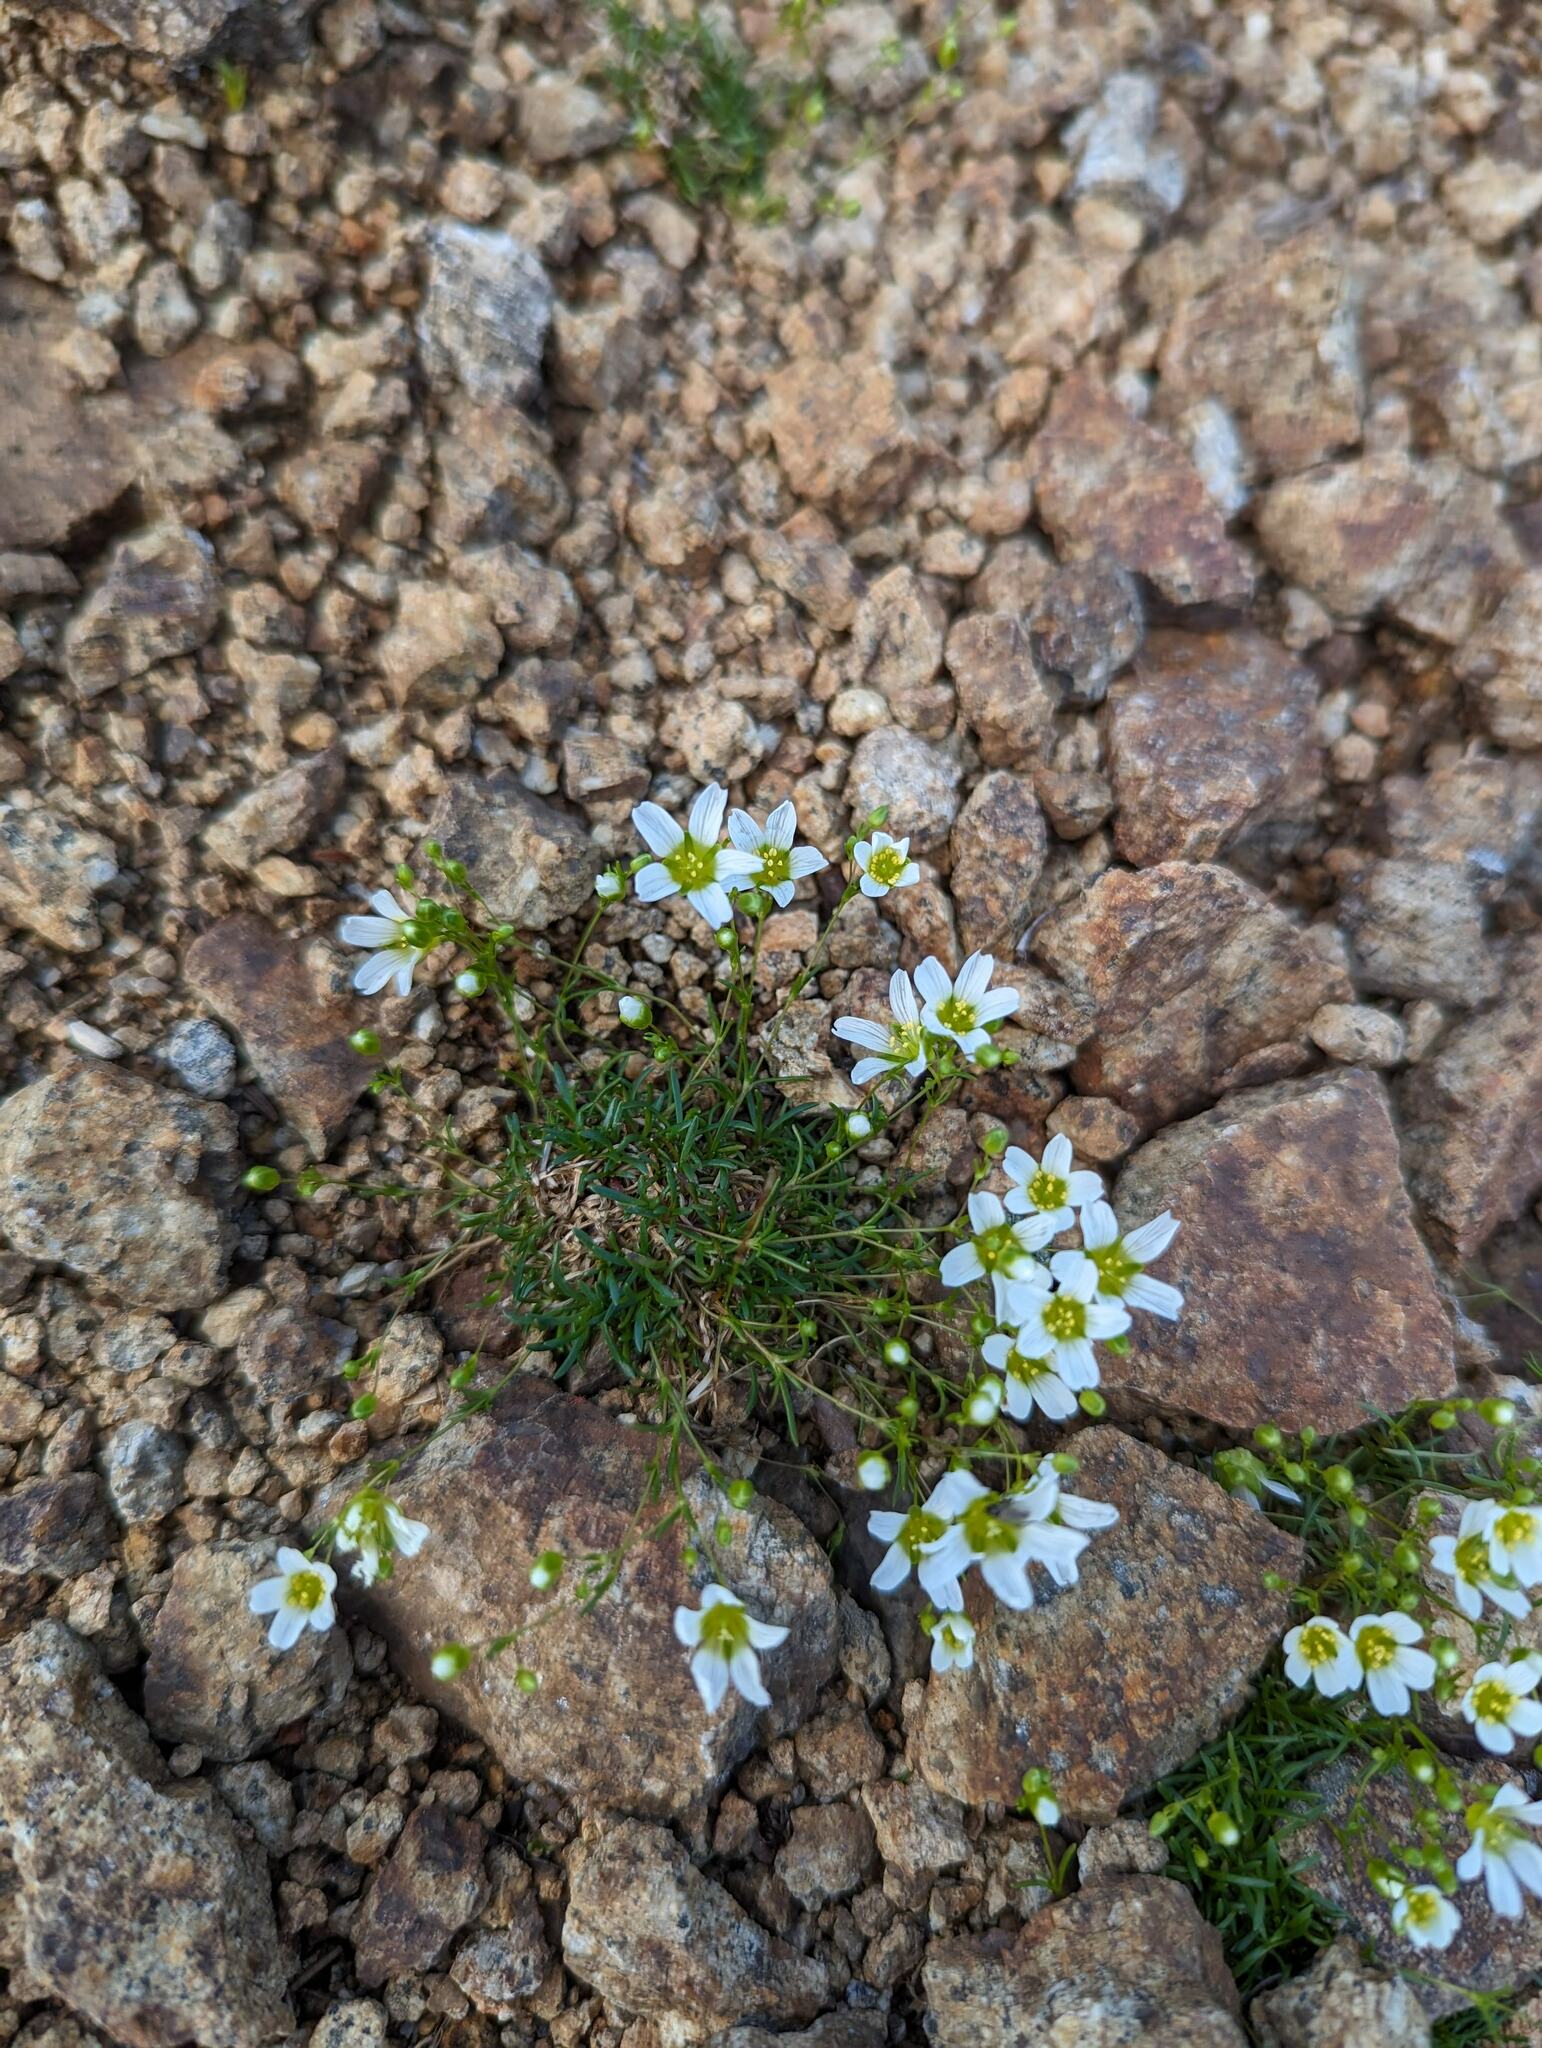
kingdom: Plantae
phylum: Tracheophyta
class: Magnoliopsida
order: Caryophyllales
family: Caryophyllaceae
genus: Geocarpon
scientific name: Geocarpon groenlandicum
